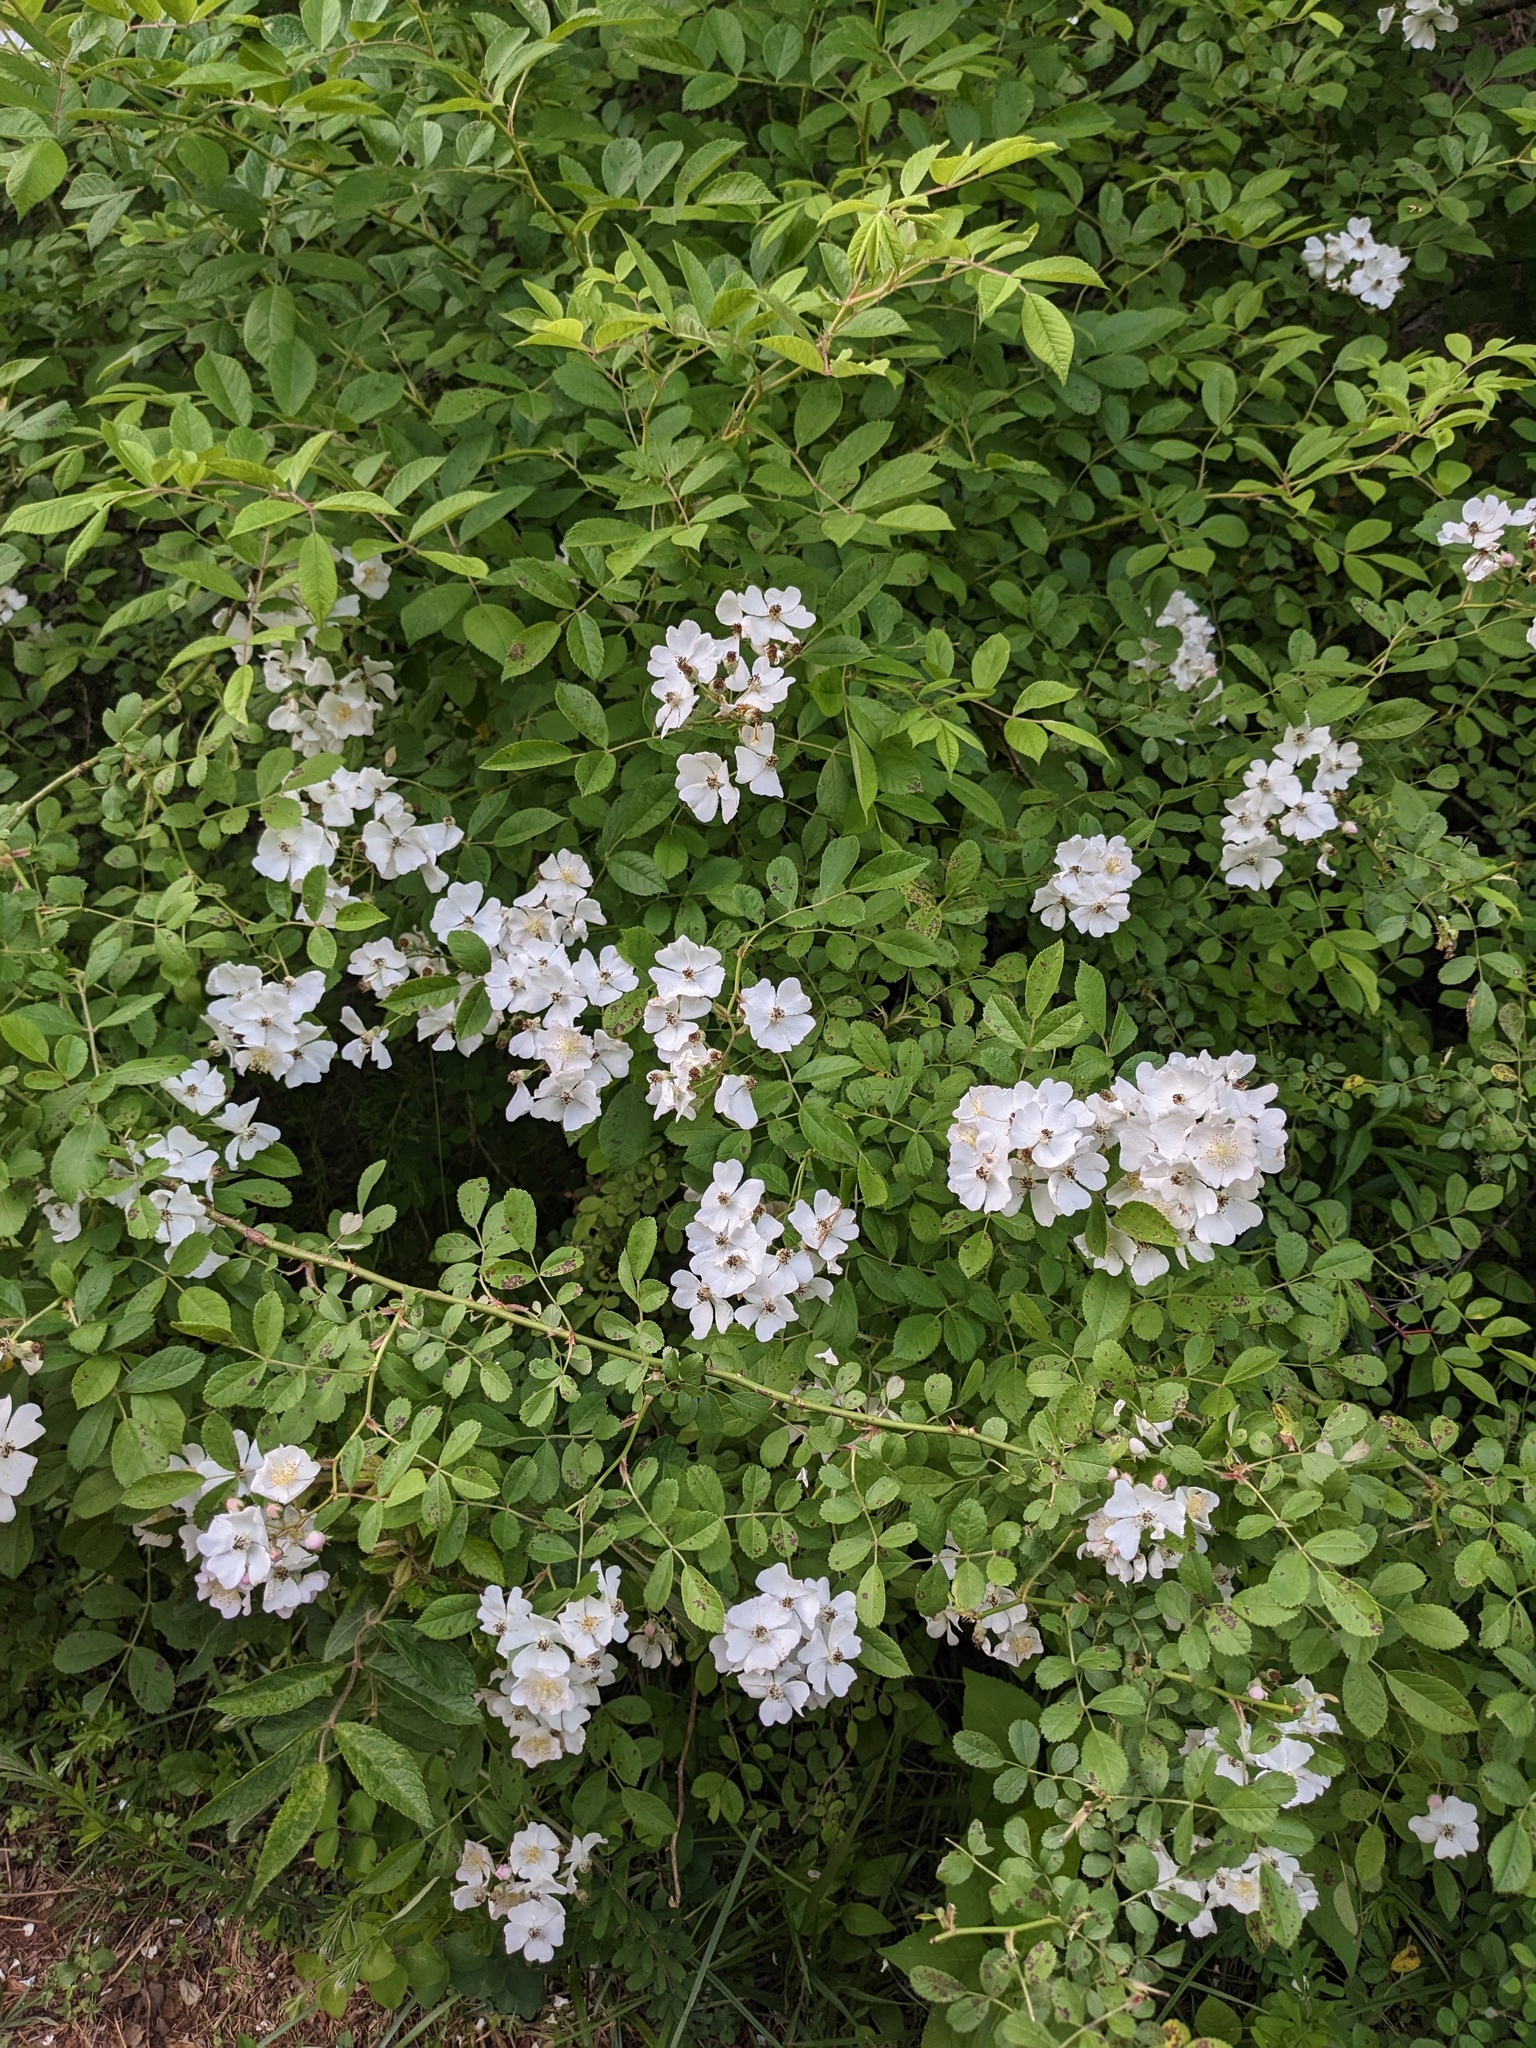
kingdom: Plantae
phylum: Tracheophyta
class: Magnoliopsida
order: Rosales
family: Rosaceae
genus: Rosa
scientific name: Rosa multiflora
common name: Multiflora rose
